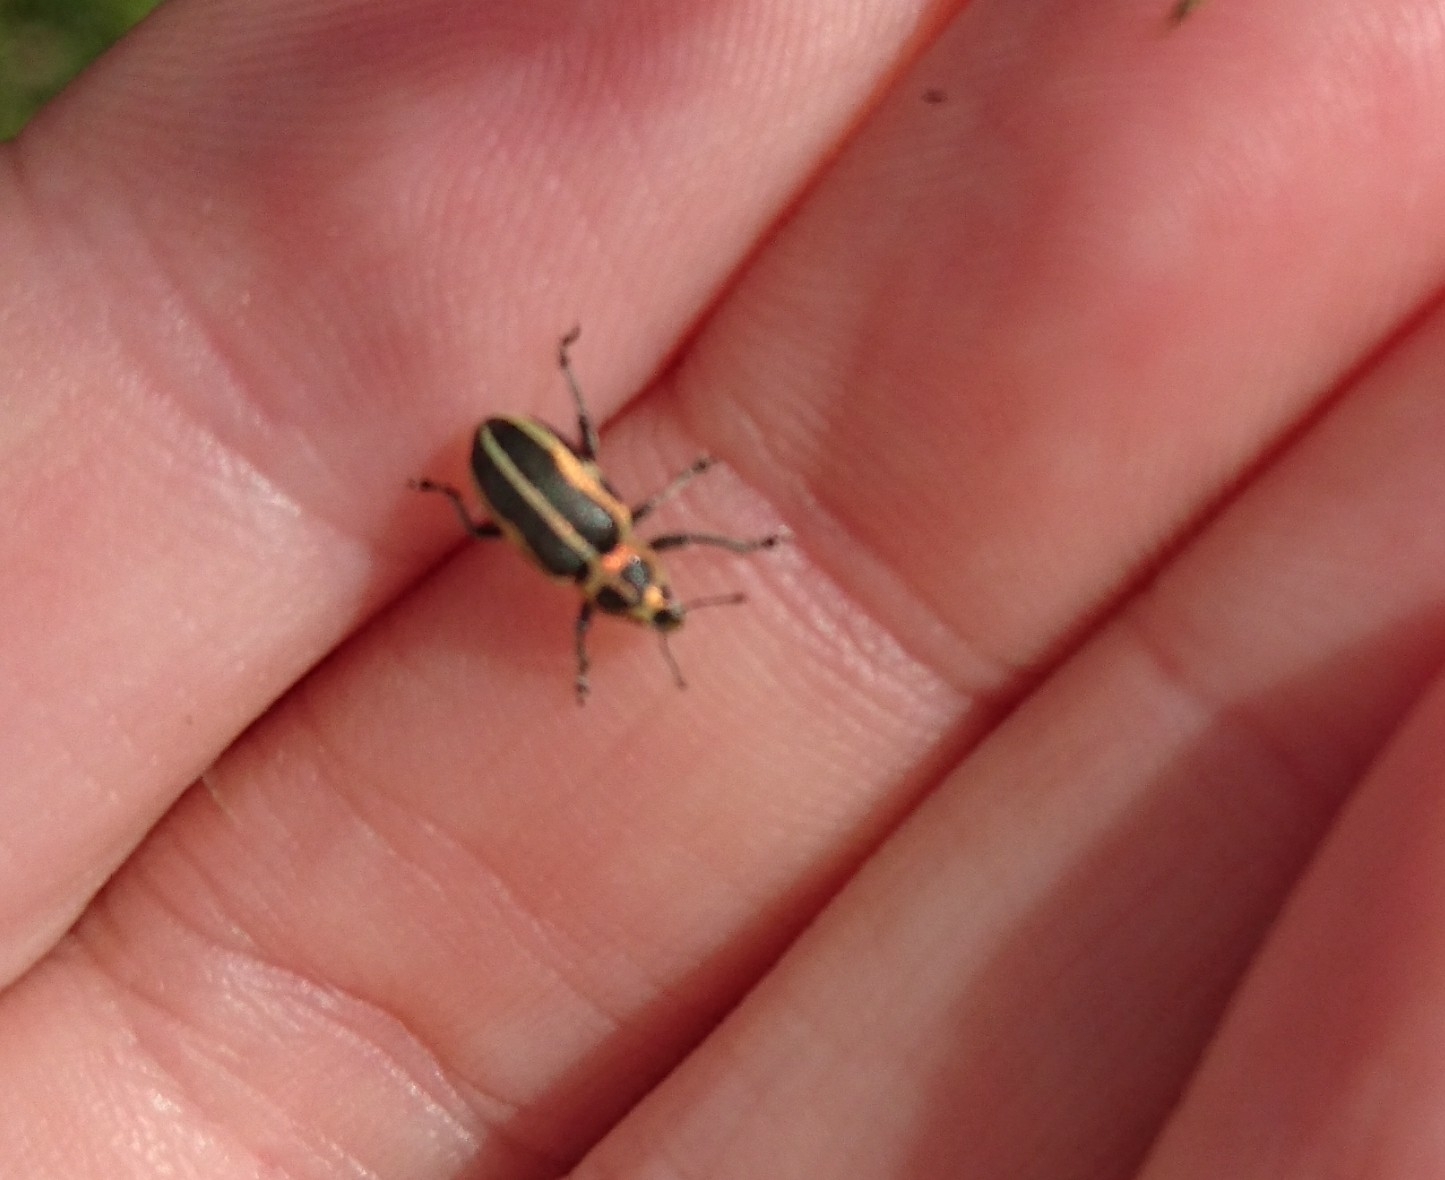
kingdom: Animalia
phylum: Arthropoda
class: Insecta
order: Coleoptera
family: Curculionidae
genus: Eudiagogus
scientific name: Eudiagogus pulcher
